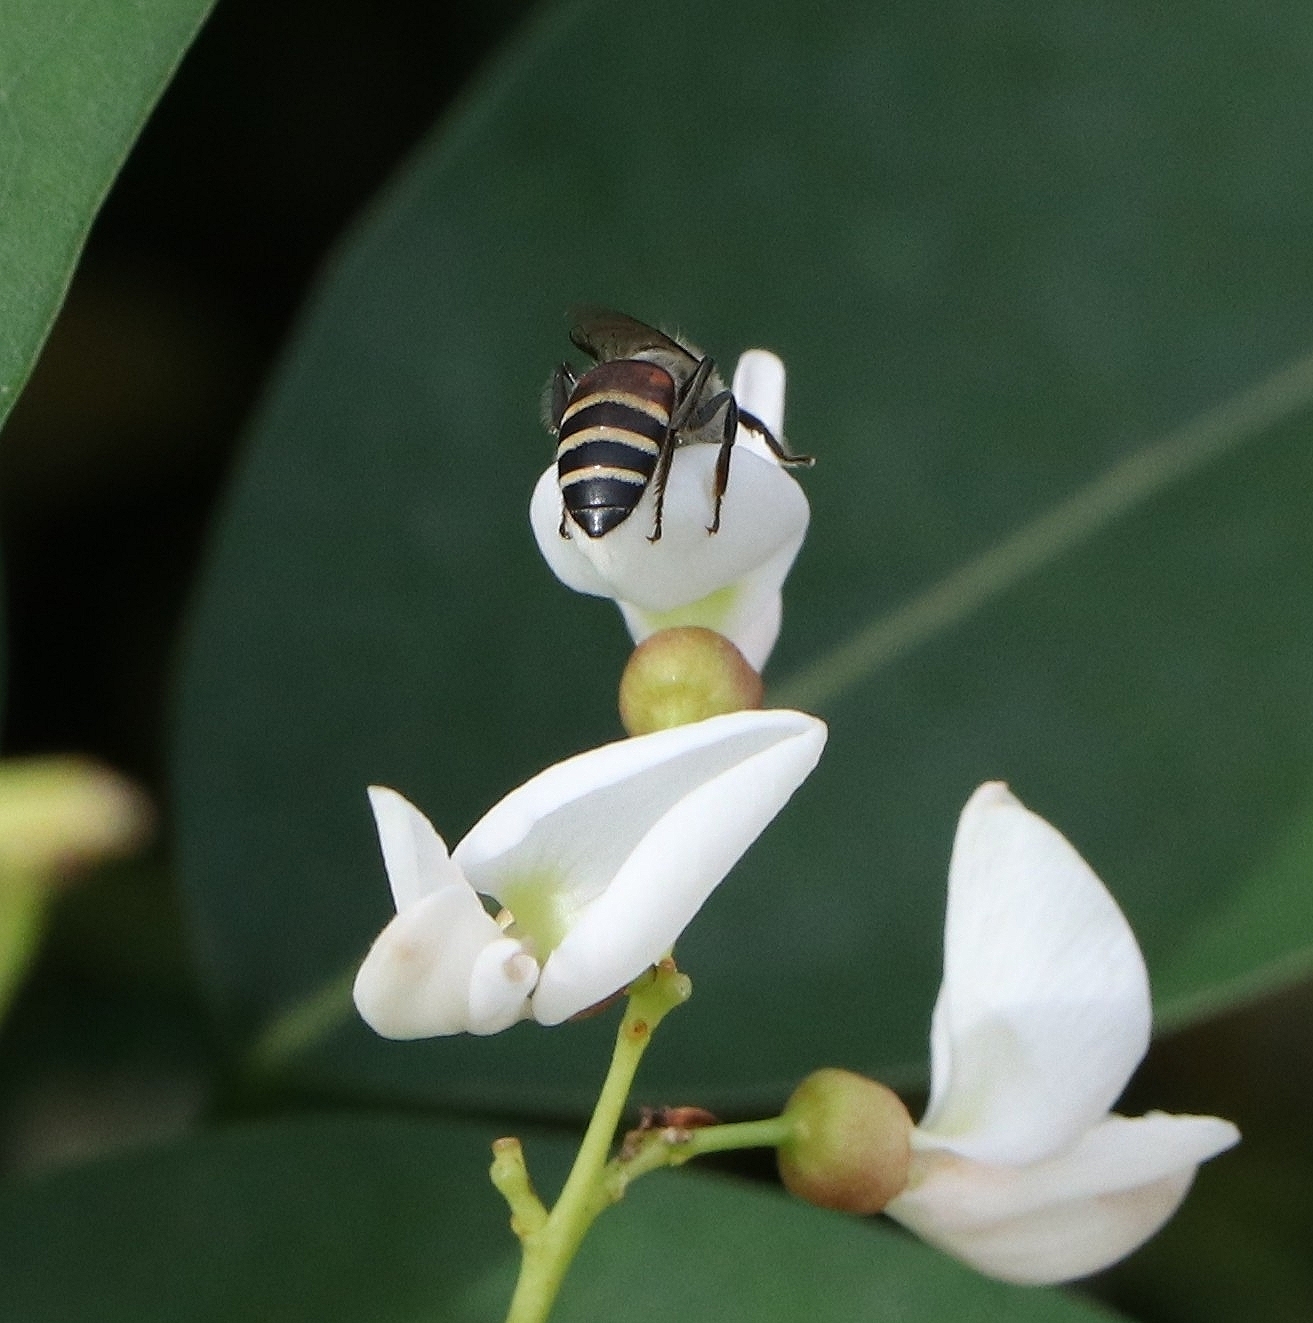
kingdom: Animalia
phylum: Arthropoda
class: Insecta
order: Hymenoptera
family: Apidae
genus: Apis
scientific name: Apis florea
